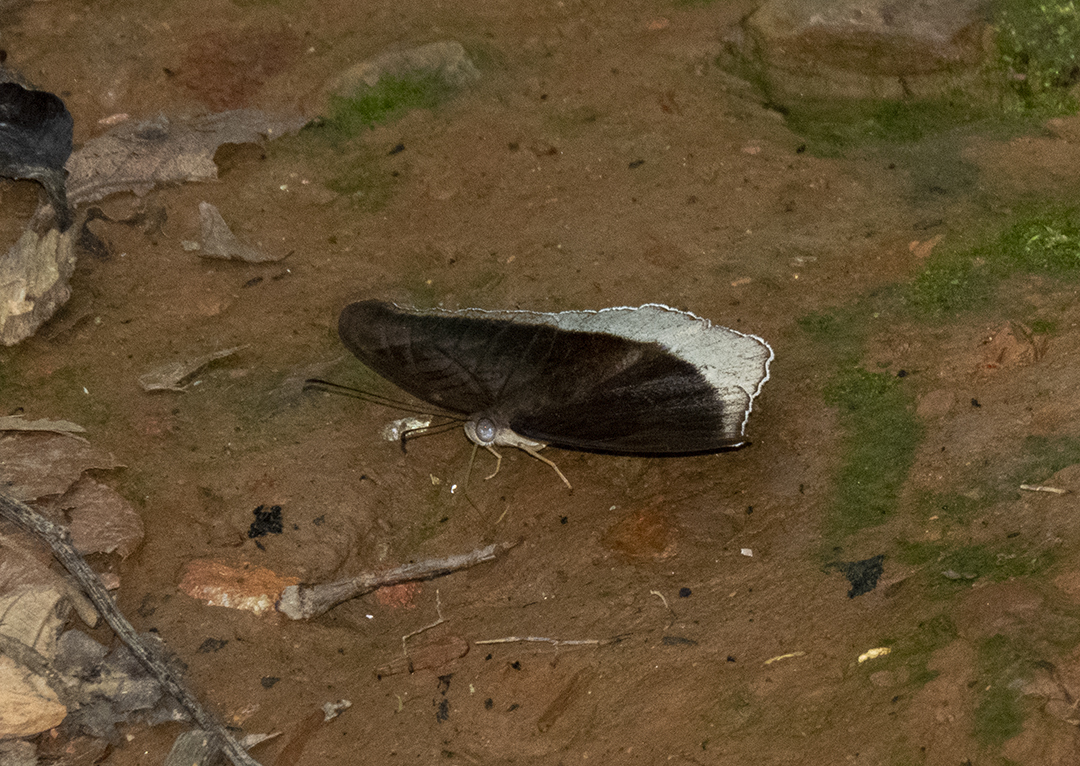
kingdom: Animalia
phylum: Arthropoda
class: Insecta
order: Lepidoptera
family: Nymphalidae
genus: Tanaecia
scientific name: Tanaecia lepidea
